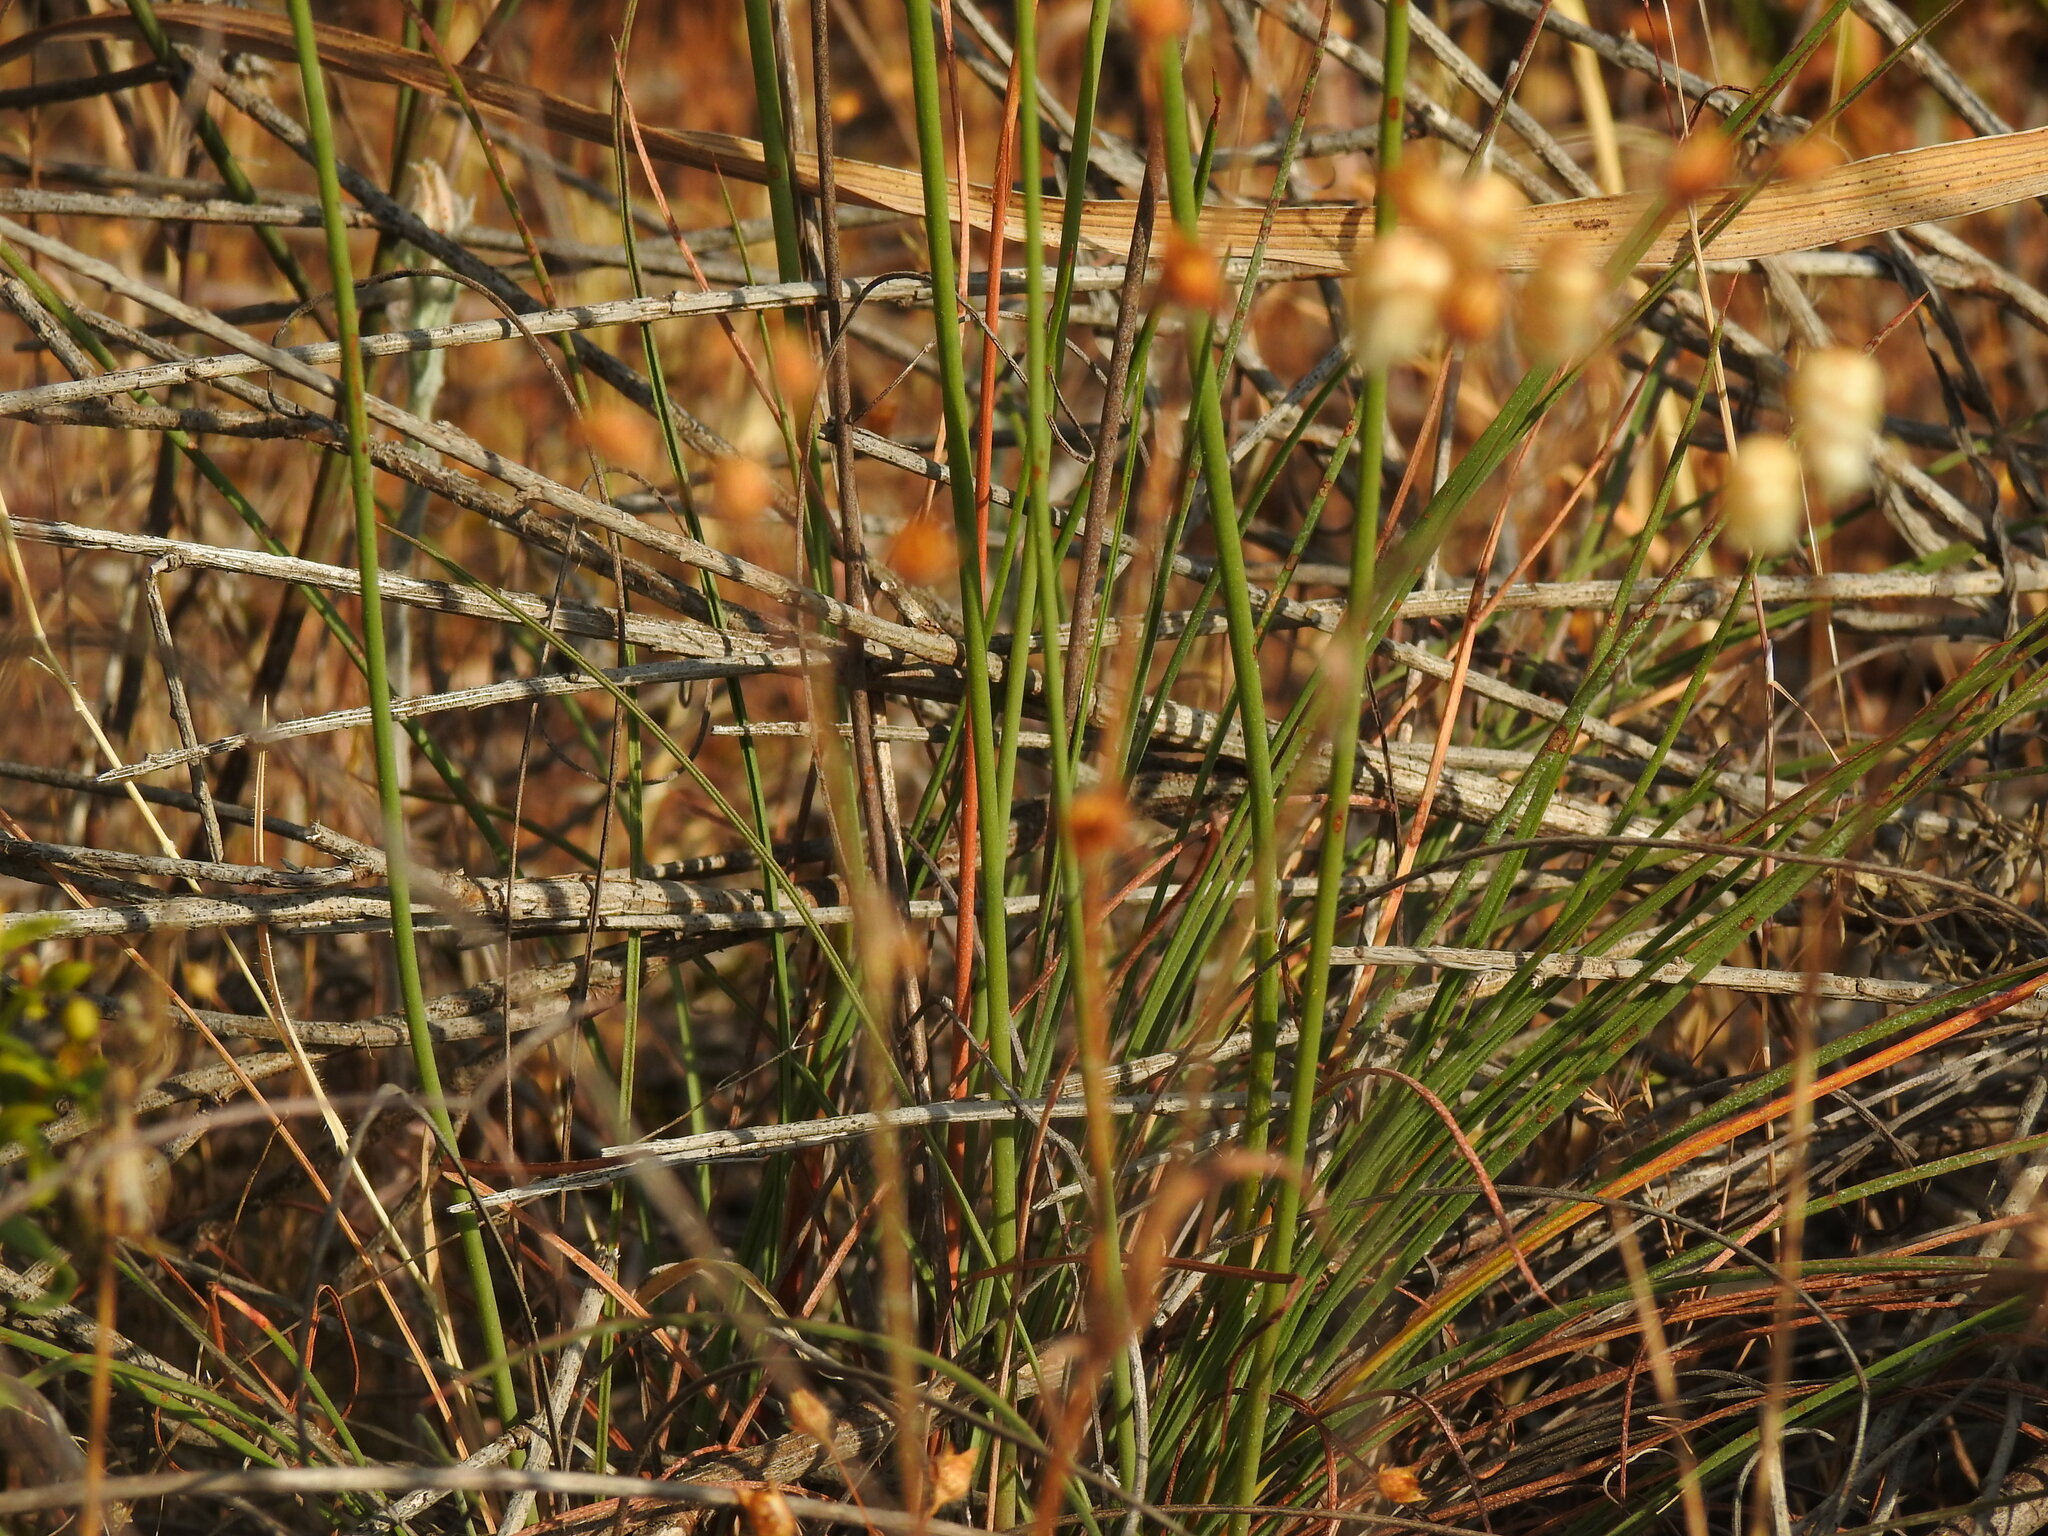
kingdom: Plantae
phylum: Tracheophyta
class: Magnoliopsida
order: Caryophyllales
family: Plumbaginaceae
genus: Armeria
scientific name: Armeria macrophylla
